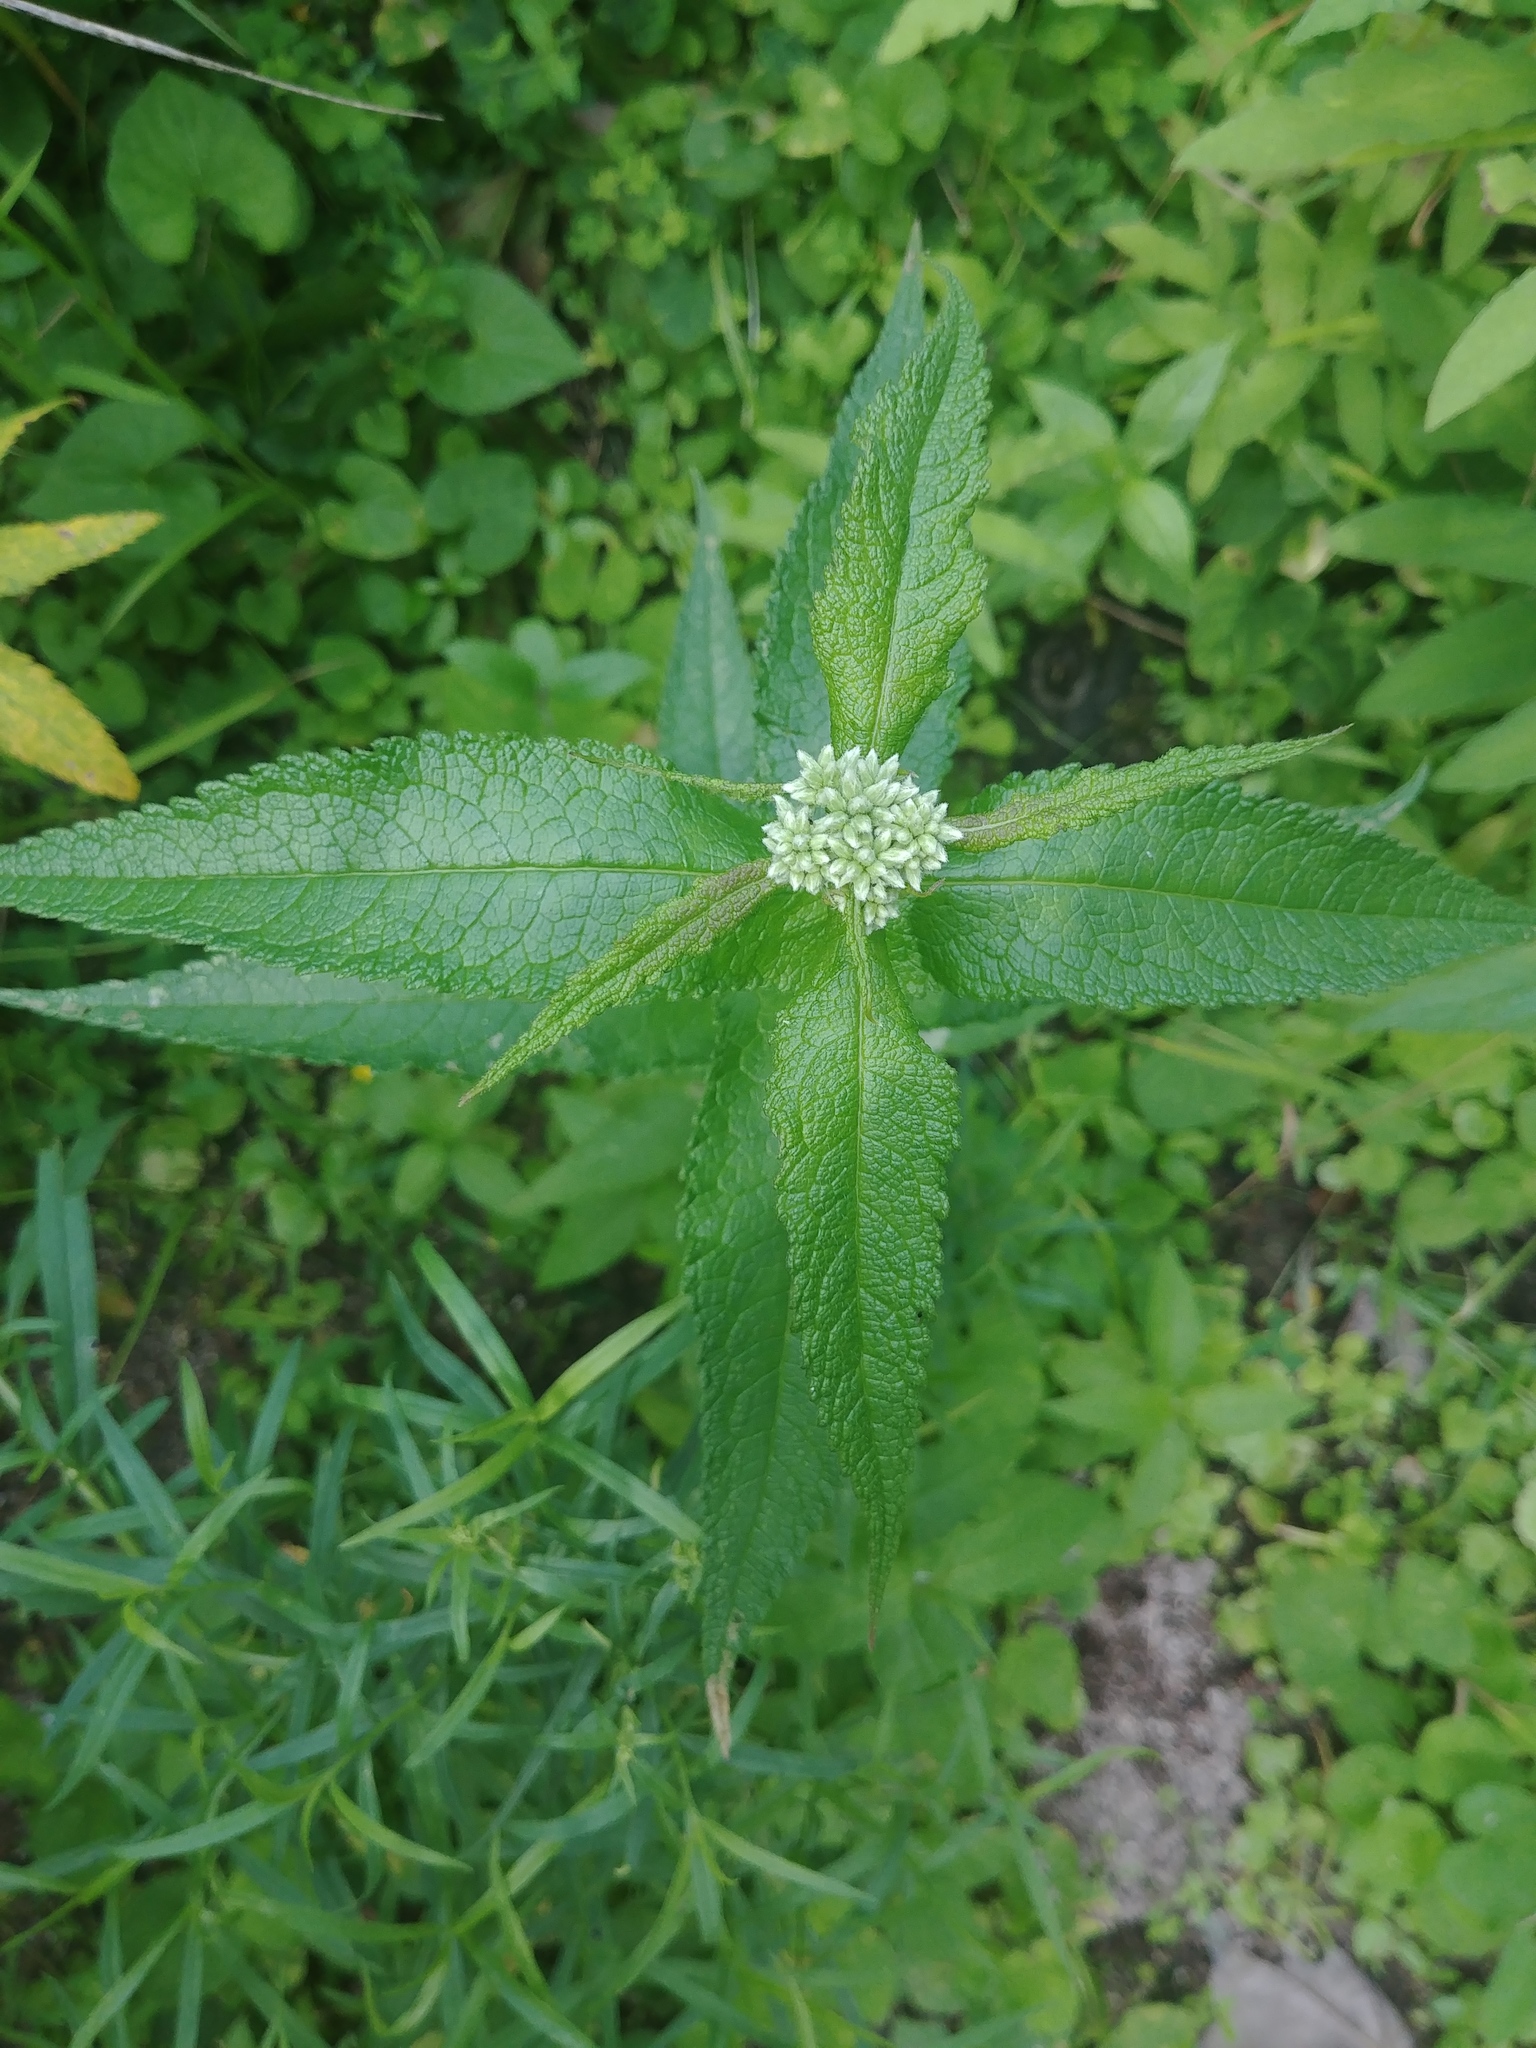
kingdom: Plantae
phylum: Tracheophyta
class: Magnoliopsida
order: Asterales
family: Asteraceae
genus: Eupatorium
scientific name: Eupatorium perfoliatum
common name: Boneset
